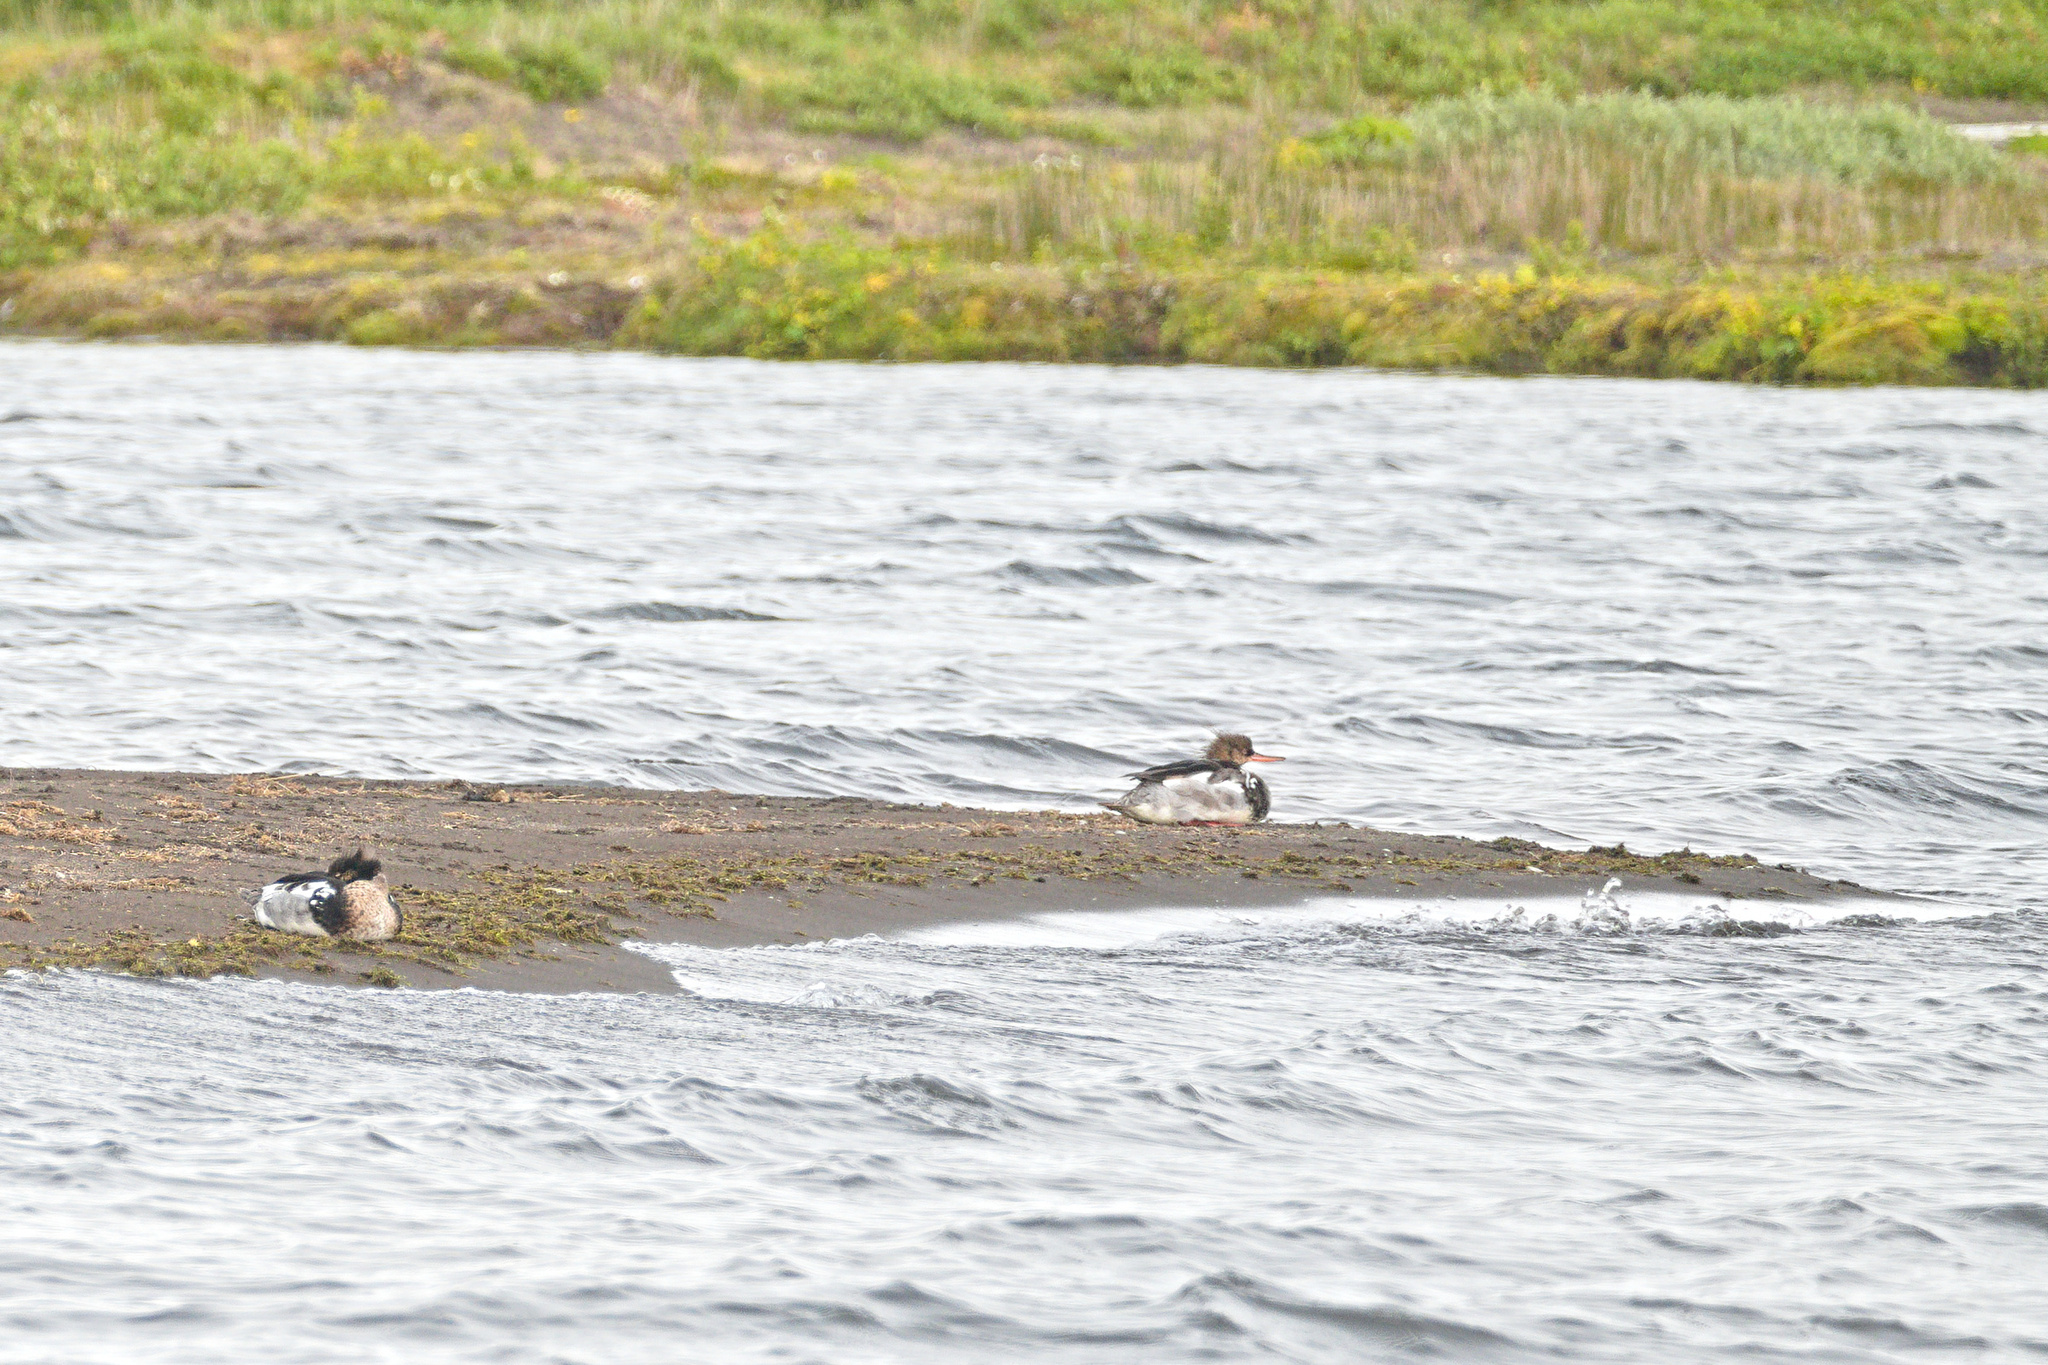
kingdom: Animalia
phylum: Chordata
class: Aves
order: Anseriformes
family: Anatidae
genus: Mergus
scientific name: Mergus serrator
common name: Red-breasted merganser
